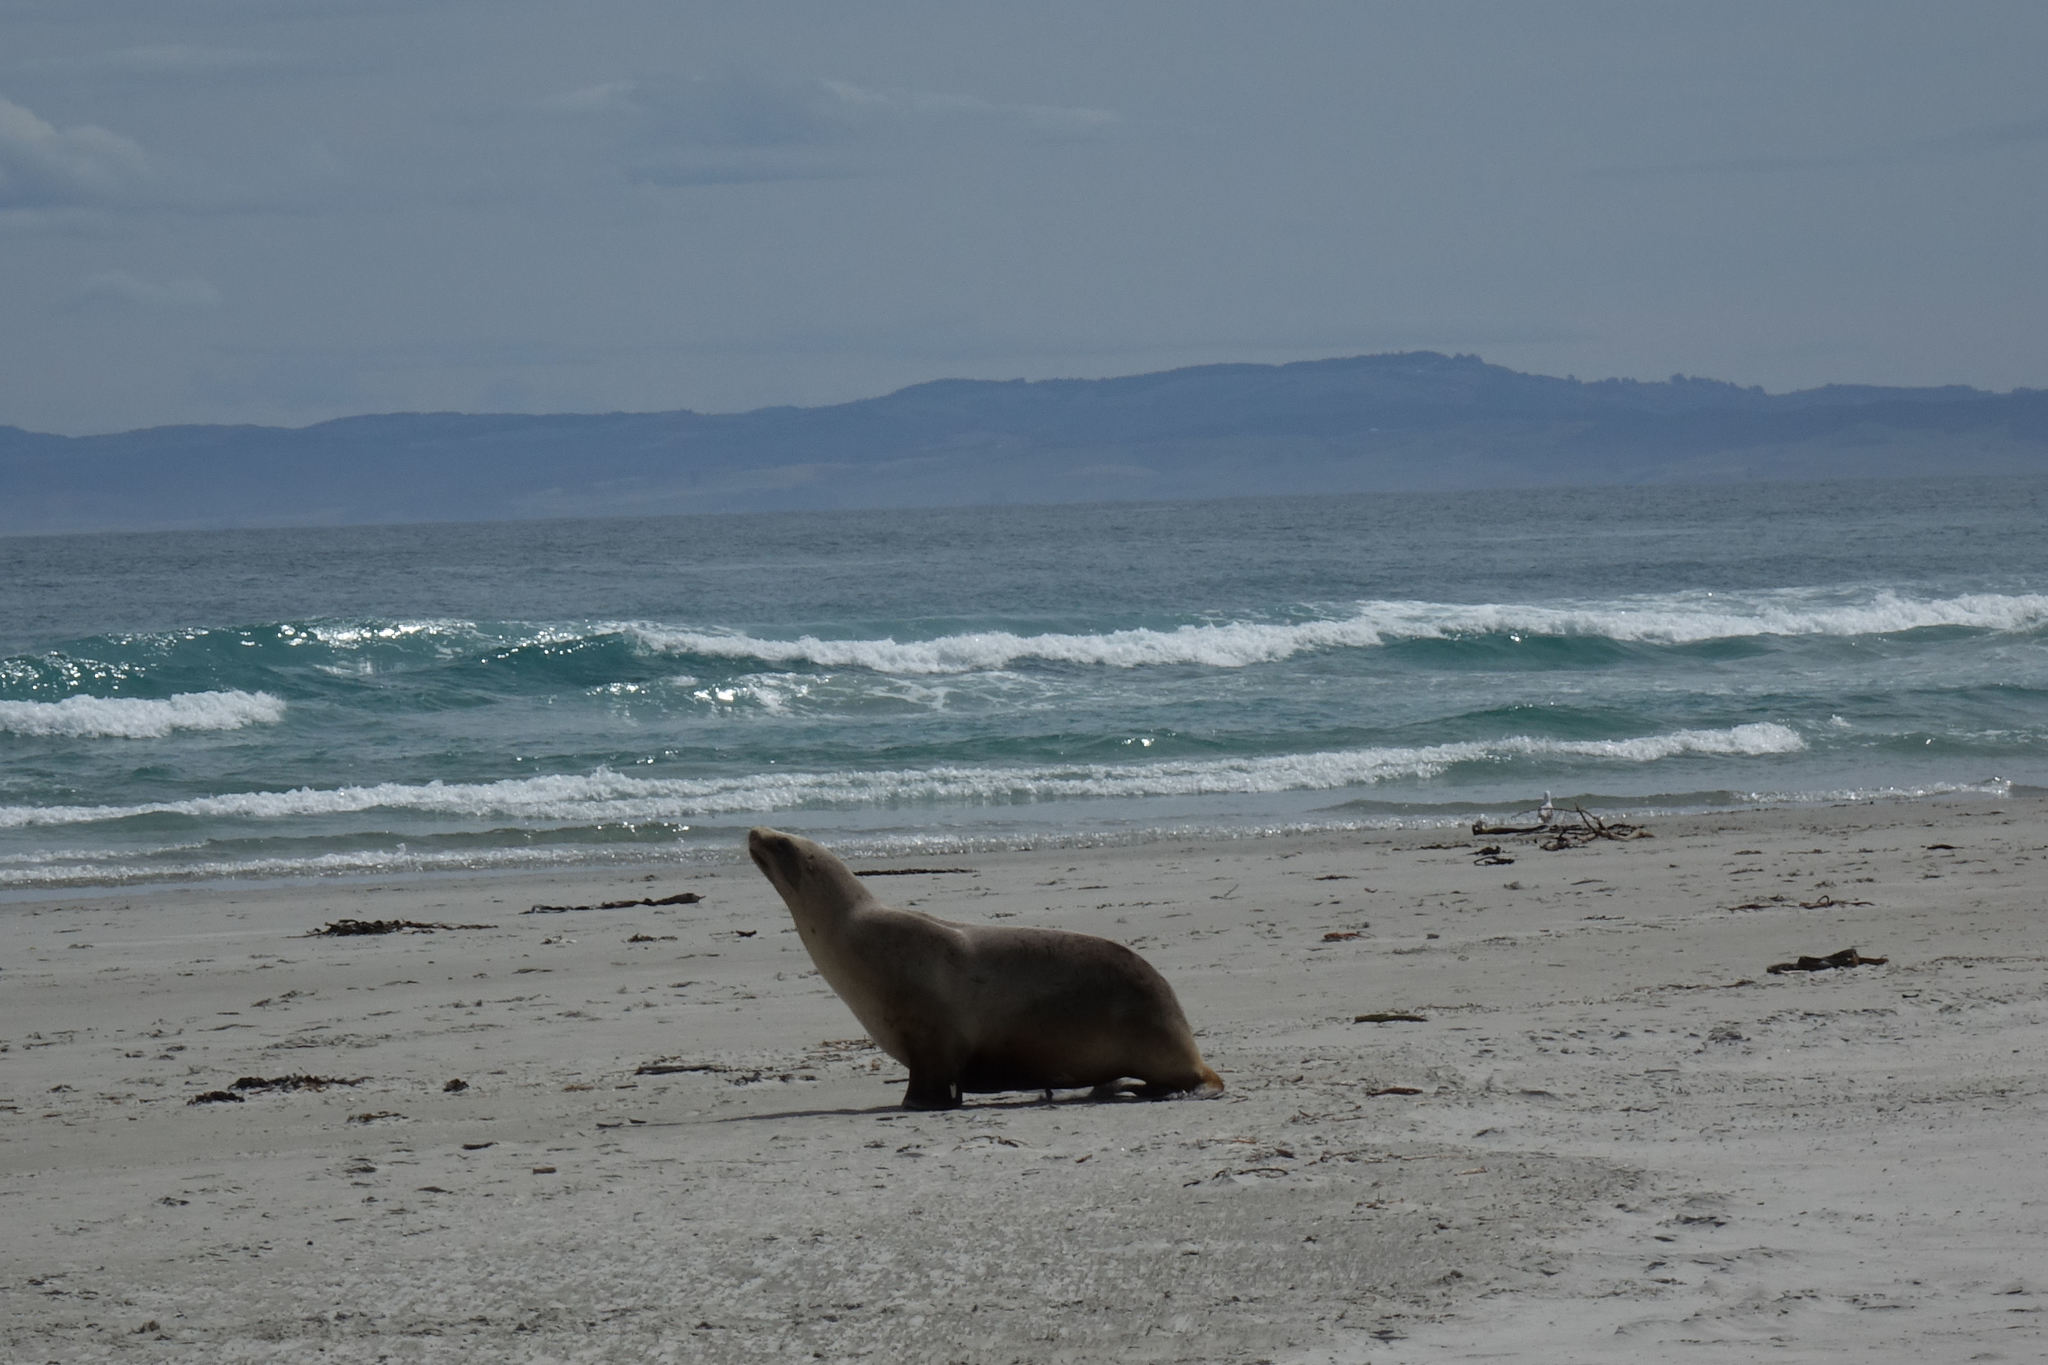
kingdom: Animalia
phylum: Chordata
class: Mammalia
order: Carnivora
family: Otariidae
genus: Phocarctos
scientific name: Phocarctos hookeri
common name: New zealand sea lion
